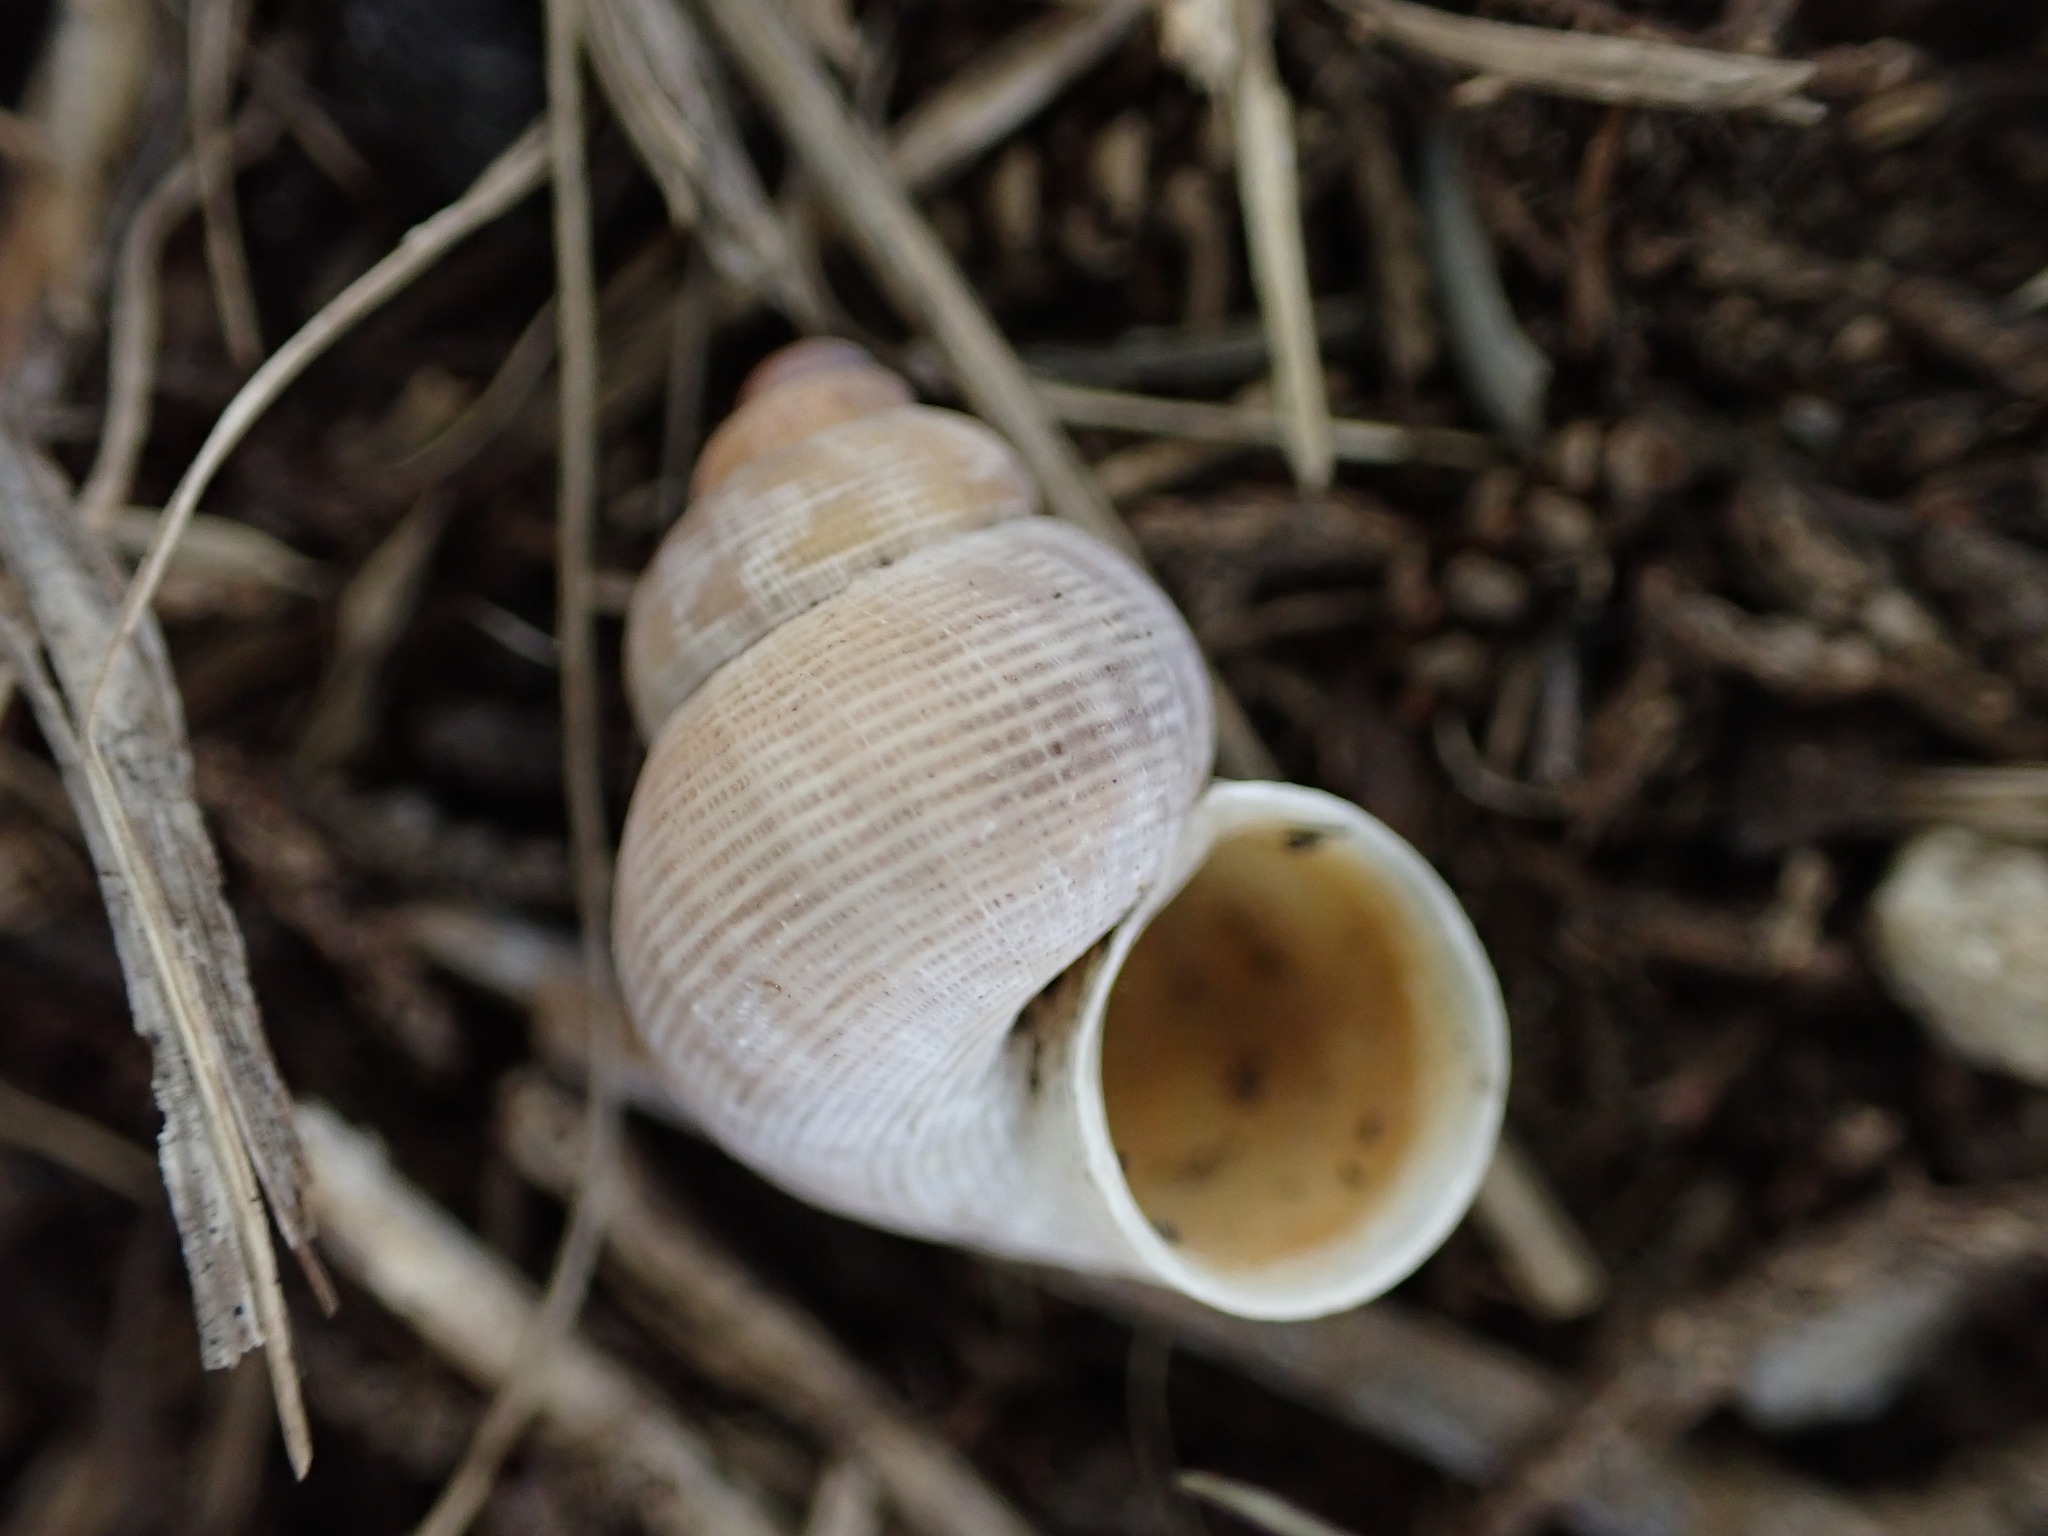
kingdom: Animalia
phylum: Mollusca
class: Gastropoda
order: Littorinimorpha
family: Pomatiidae
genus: Pomatias
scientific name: Pomatias elegans
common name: Red-mouthed snail
